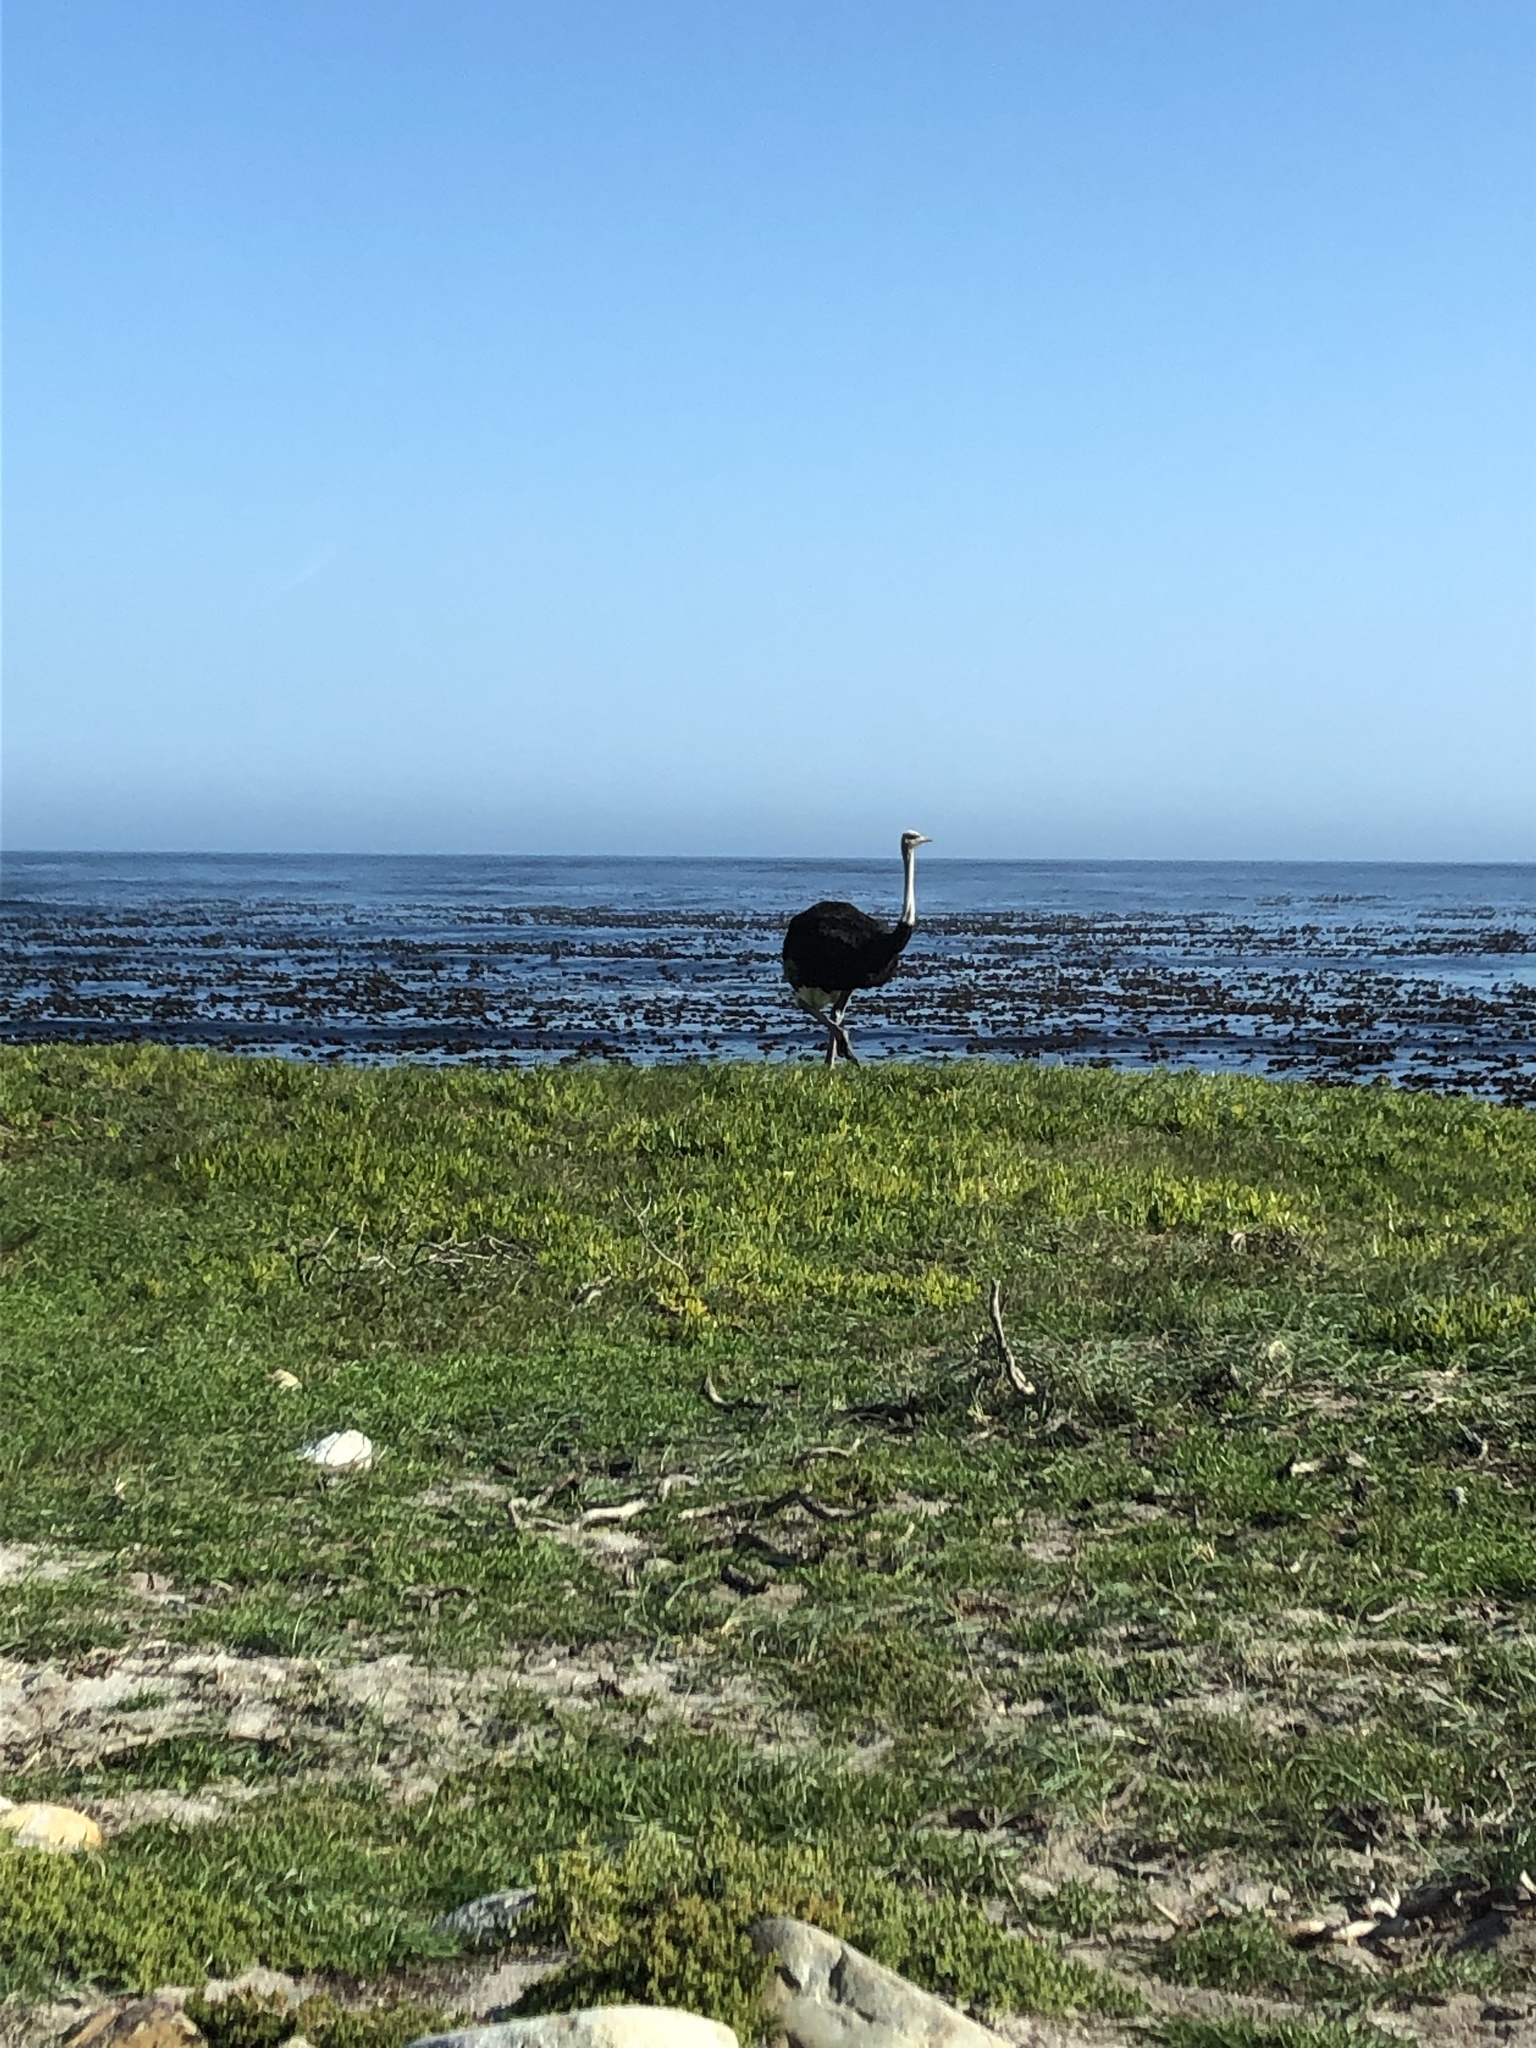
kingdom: Animalia
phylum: Chordata
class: Aves
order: Struthioniformes
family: Struthionidae
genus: Struthio
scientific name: Struthio camelus
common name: Common ostrich
